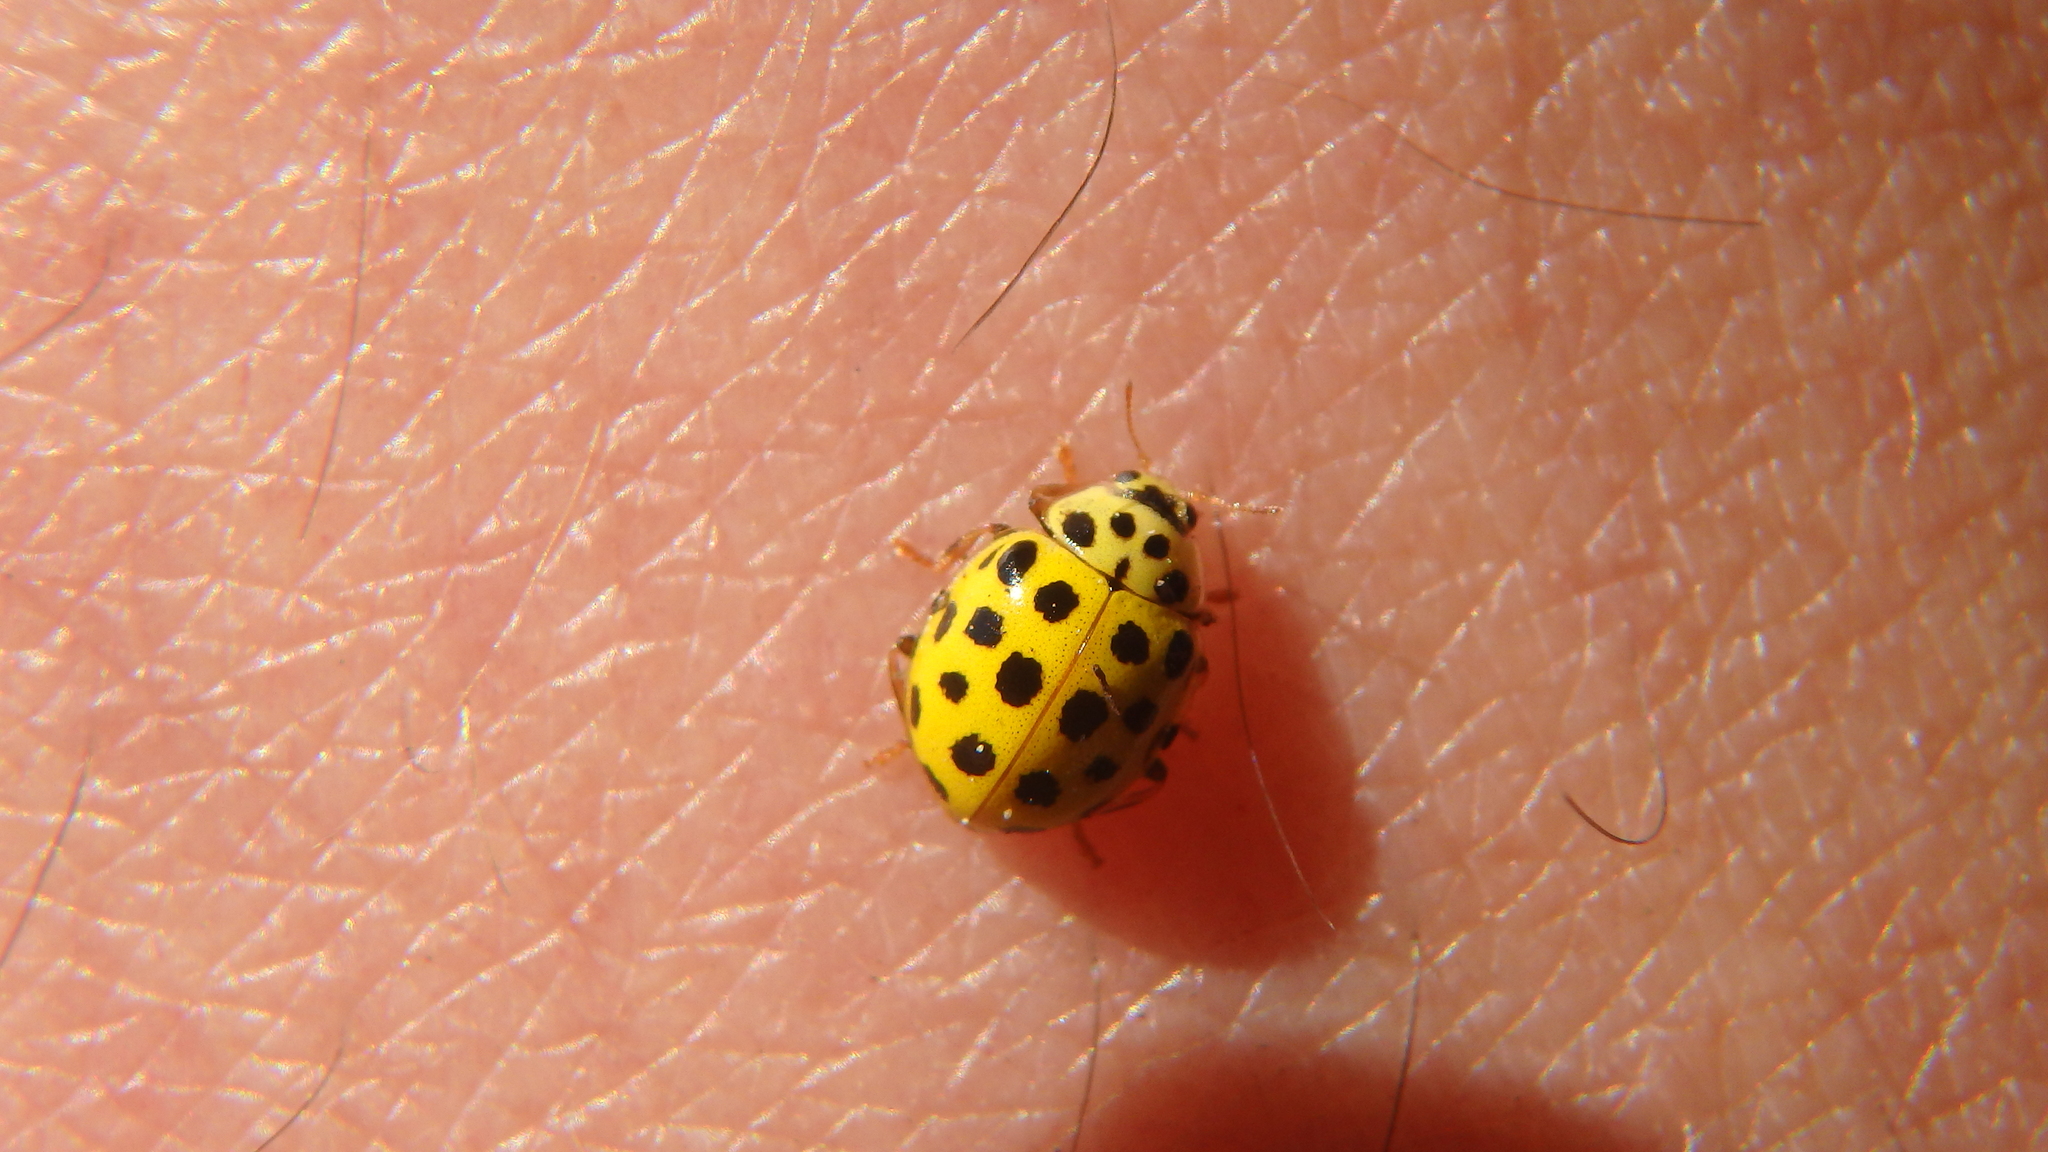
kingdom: Animalia
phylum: Arthropoda
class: Insecta
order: Coleoptera
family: Coccinellidae
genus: Psyllobora
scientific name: Psyllobora vigintiduopunctata
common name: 22-spot ladybird
